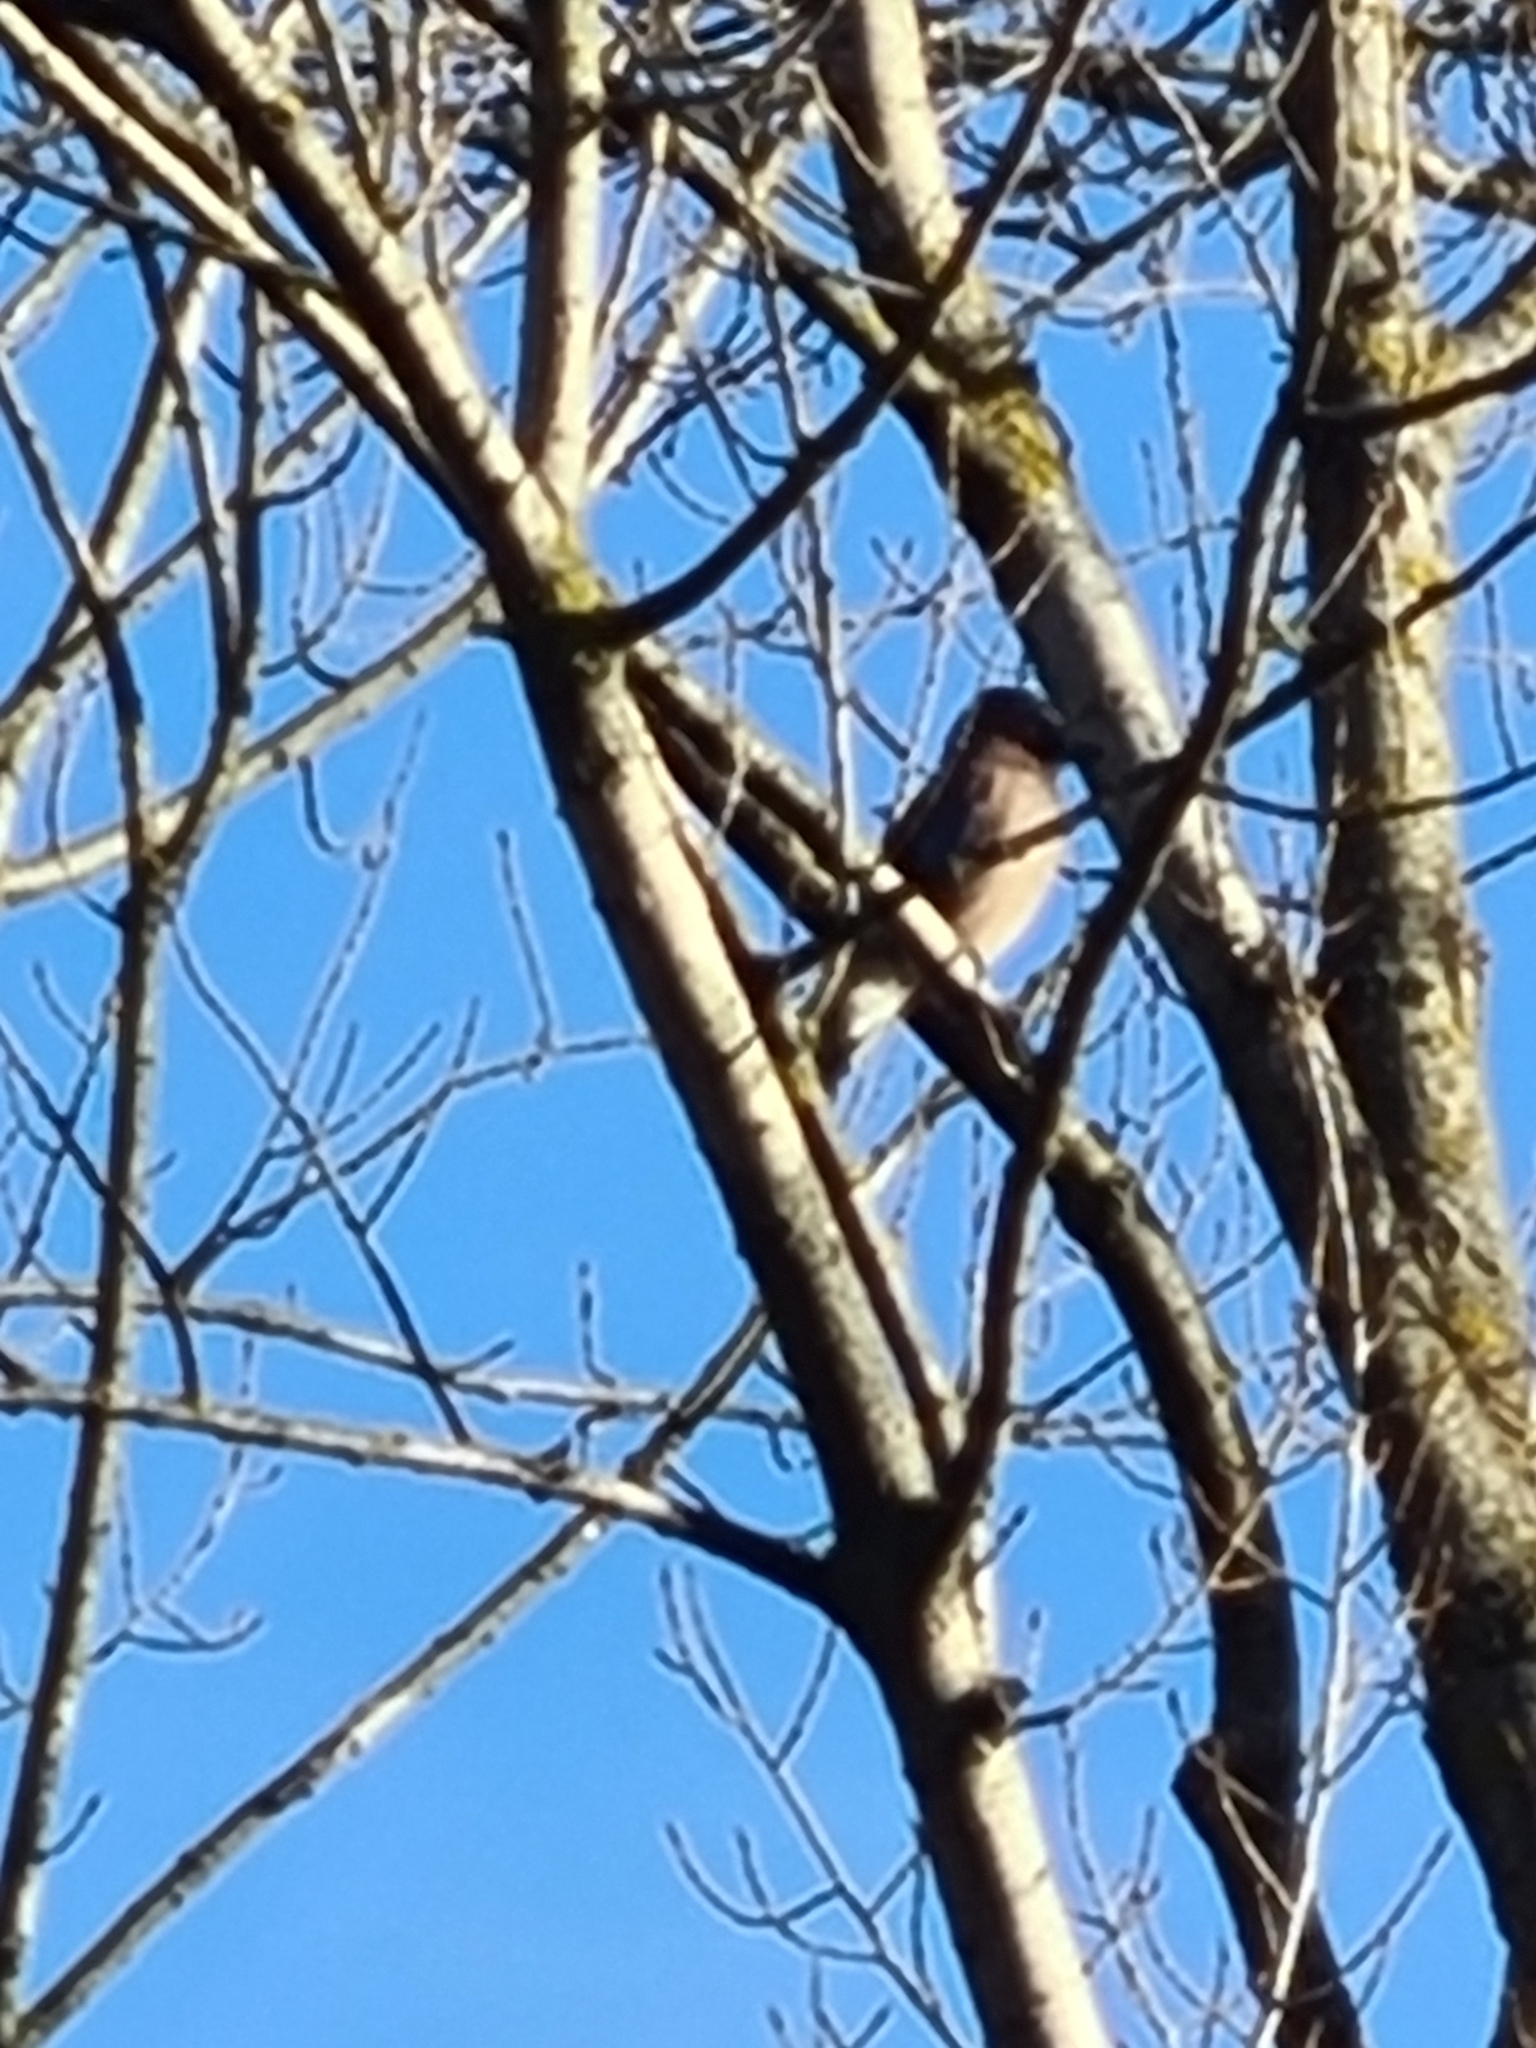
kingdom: Animalia
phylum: Chordata
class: Aves
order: Passeriformes
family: Corvidae
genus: Garrulus
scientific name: Garrulus glandarius
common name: Eurasian jay
